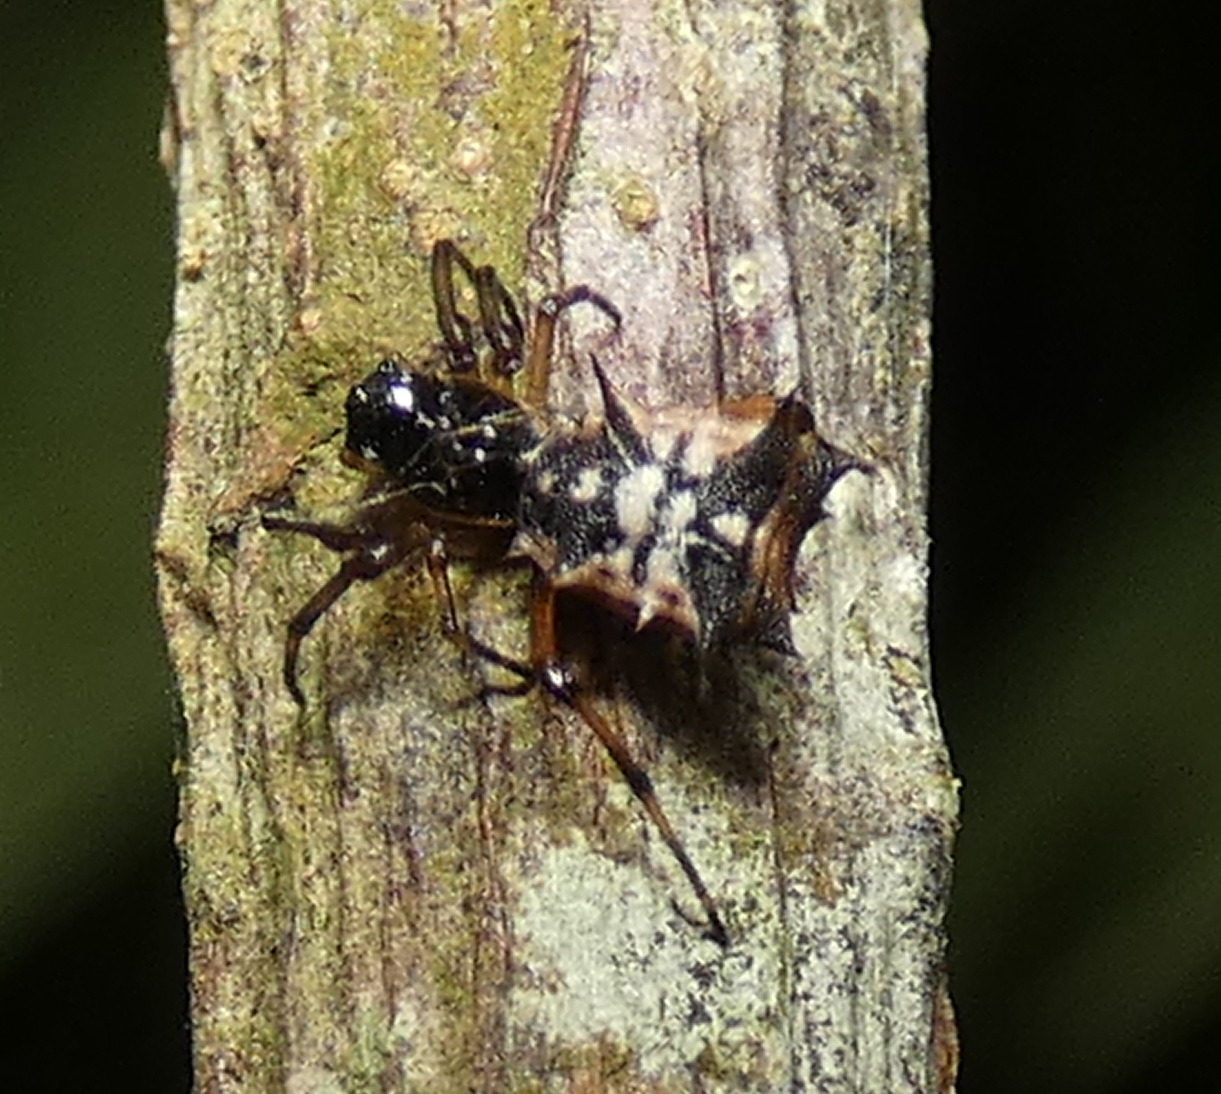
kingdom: Animalia
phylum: Arthropoda
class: Arachnida
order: Araneae
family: Araneidae
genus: Micrathena
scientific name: Micrathena picta
